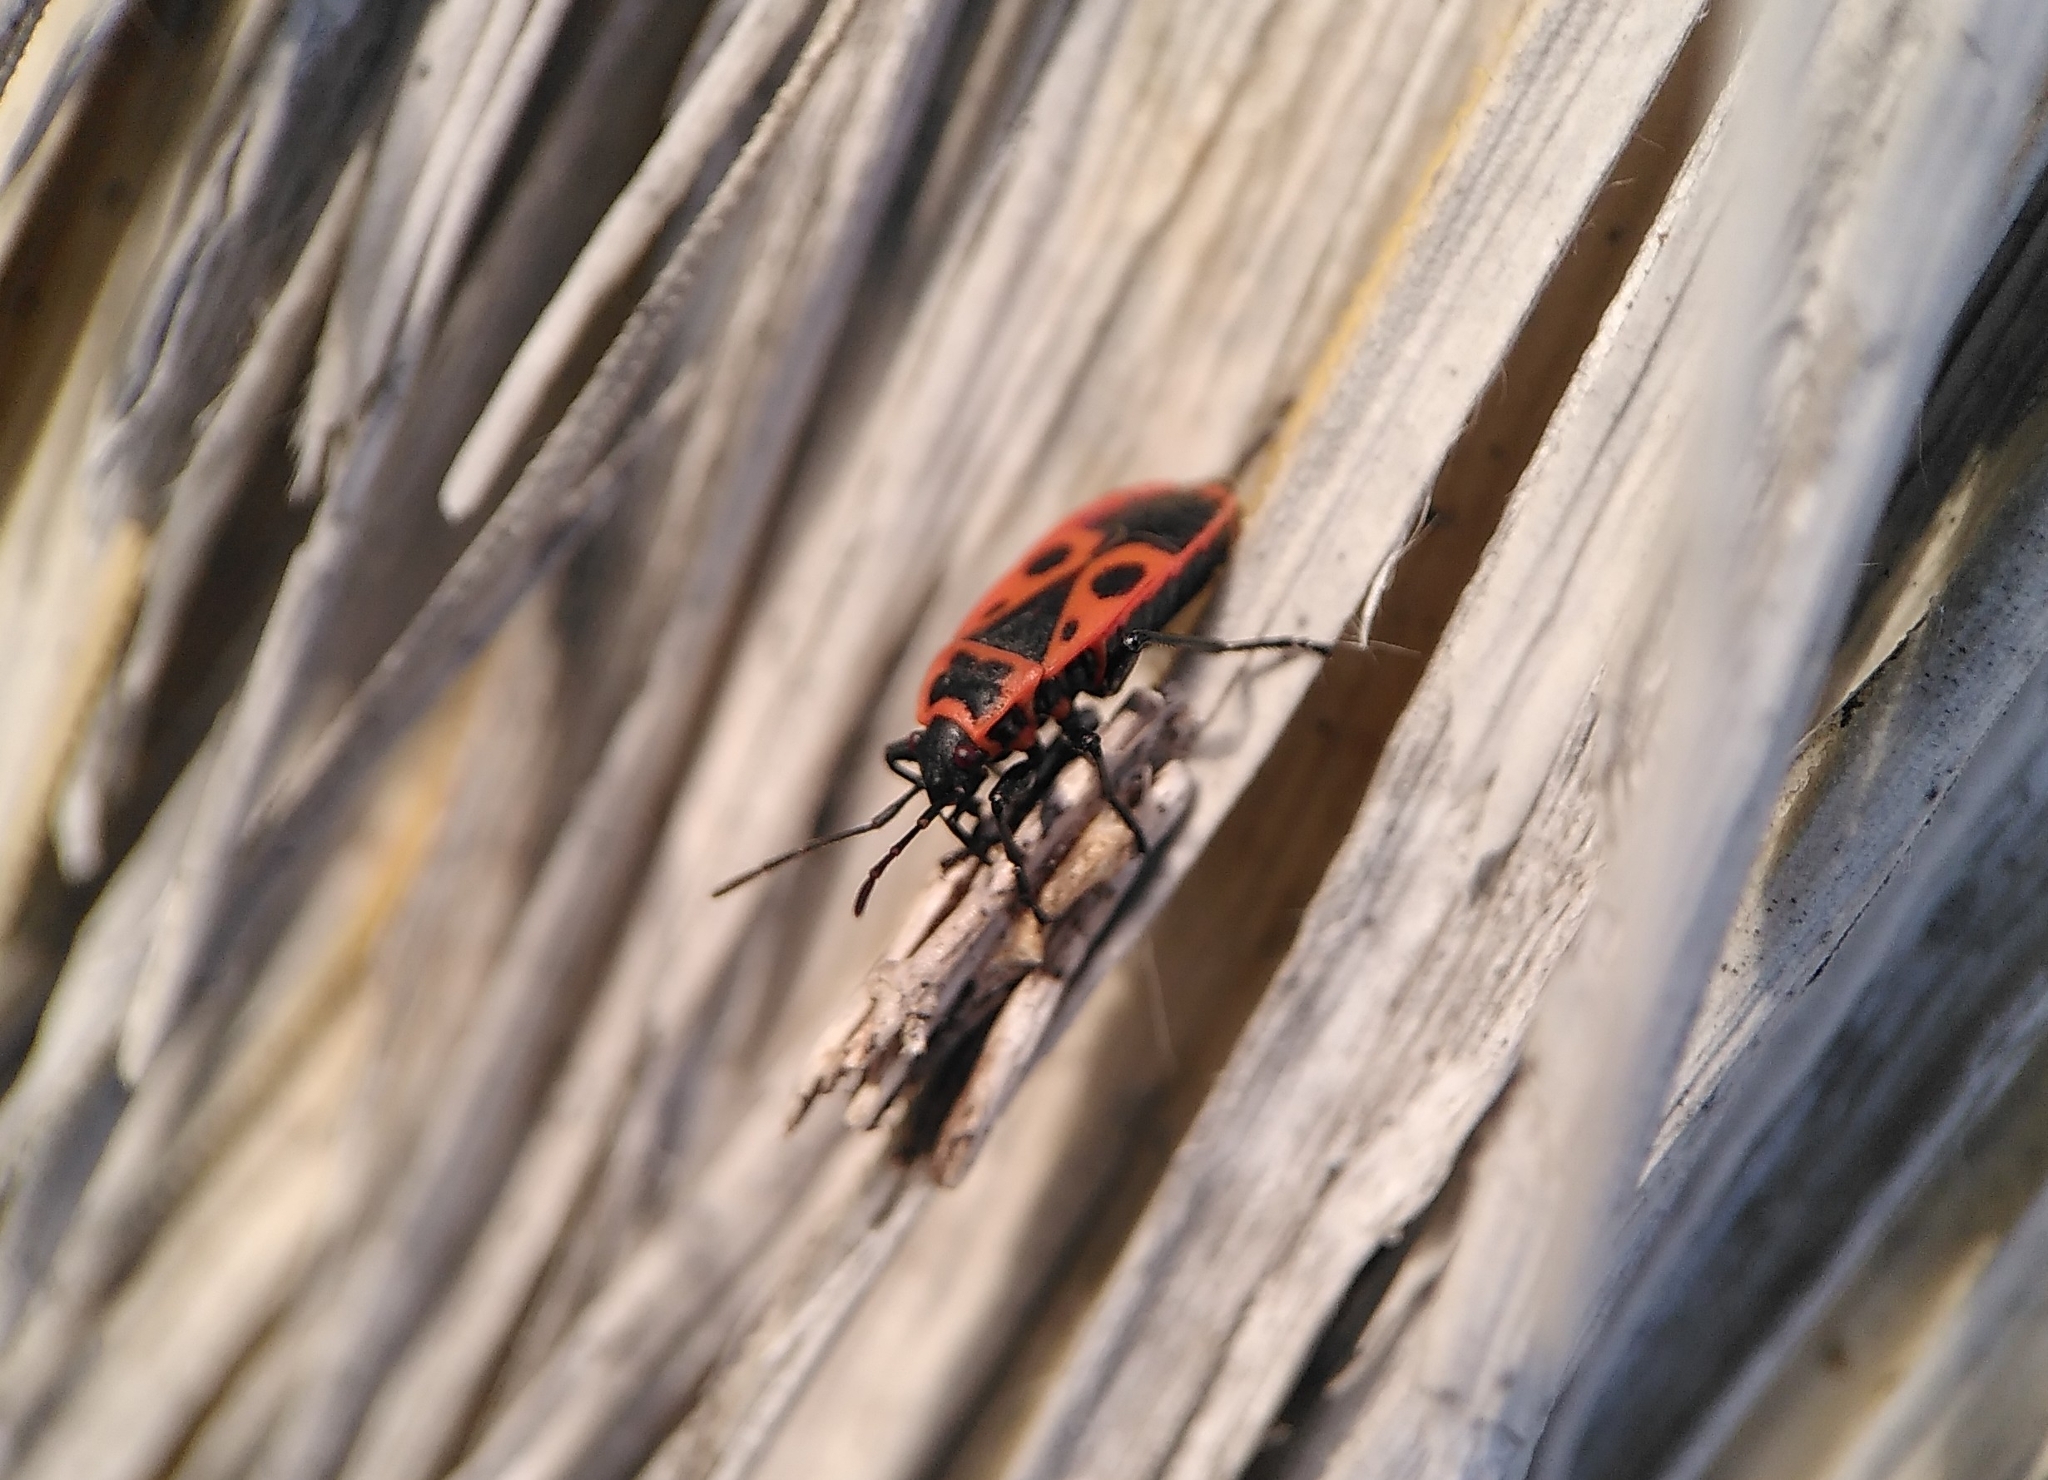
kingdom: Animalia
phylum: Arthropoda
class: Insecta
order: Hemiptera
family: Pyrrhocoridae
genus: Pyrrhocoris
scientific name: Pyrrhocoris apterus
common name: Firebug
